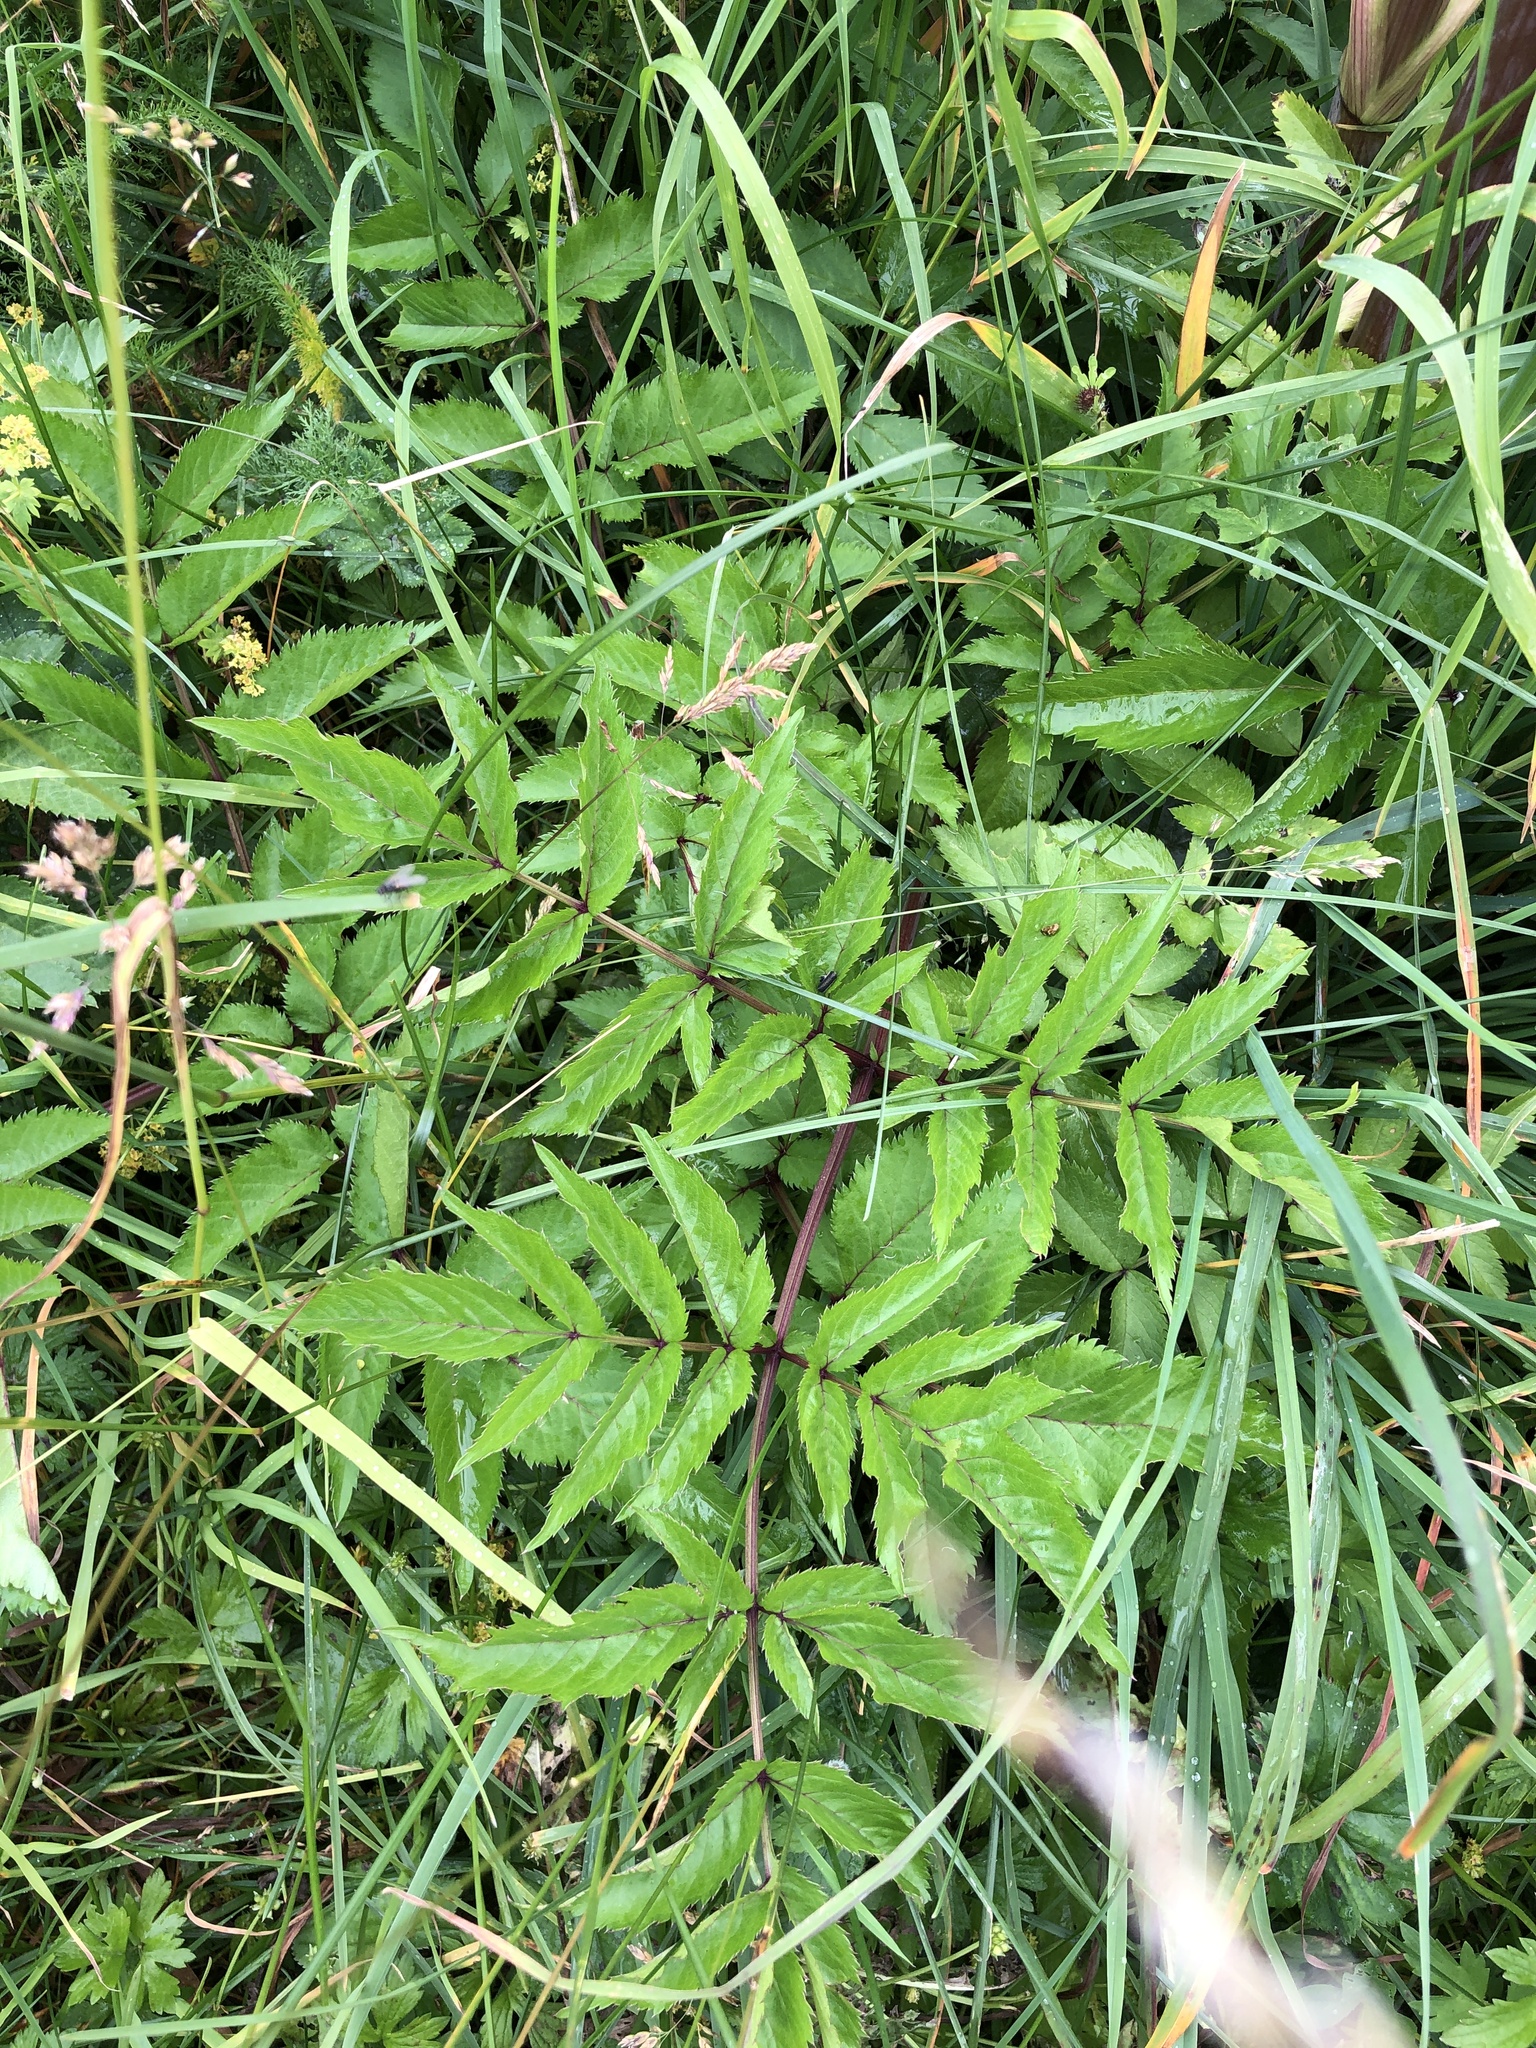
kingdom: Plantae
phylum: Tracheophyta
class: Magnoliopsida
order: Apiales
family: Apiaceae
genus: Angelica
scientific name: Angelica sylvestris
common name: Wild angelica
